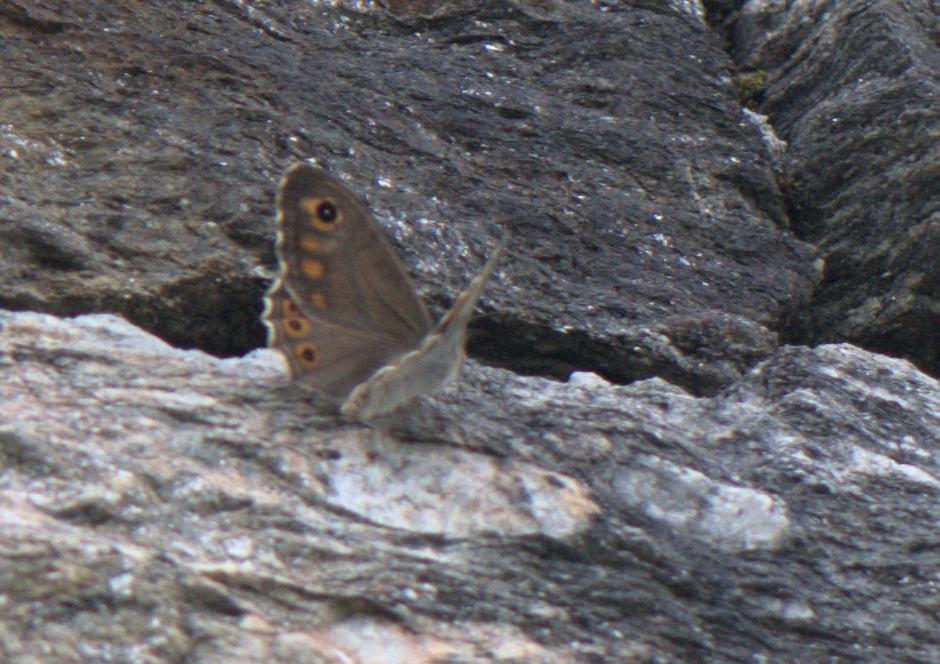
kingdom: Animalia
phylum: Arthropoda
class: Insecta
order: Lepidoptera
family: Nymphalidae
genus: Pararge
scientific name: Pararge Lasiommata schakra
